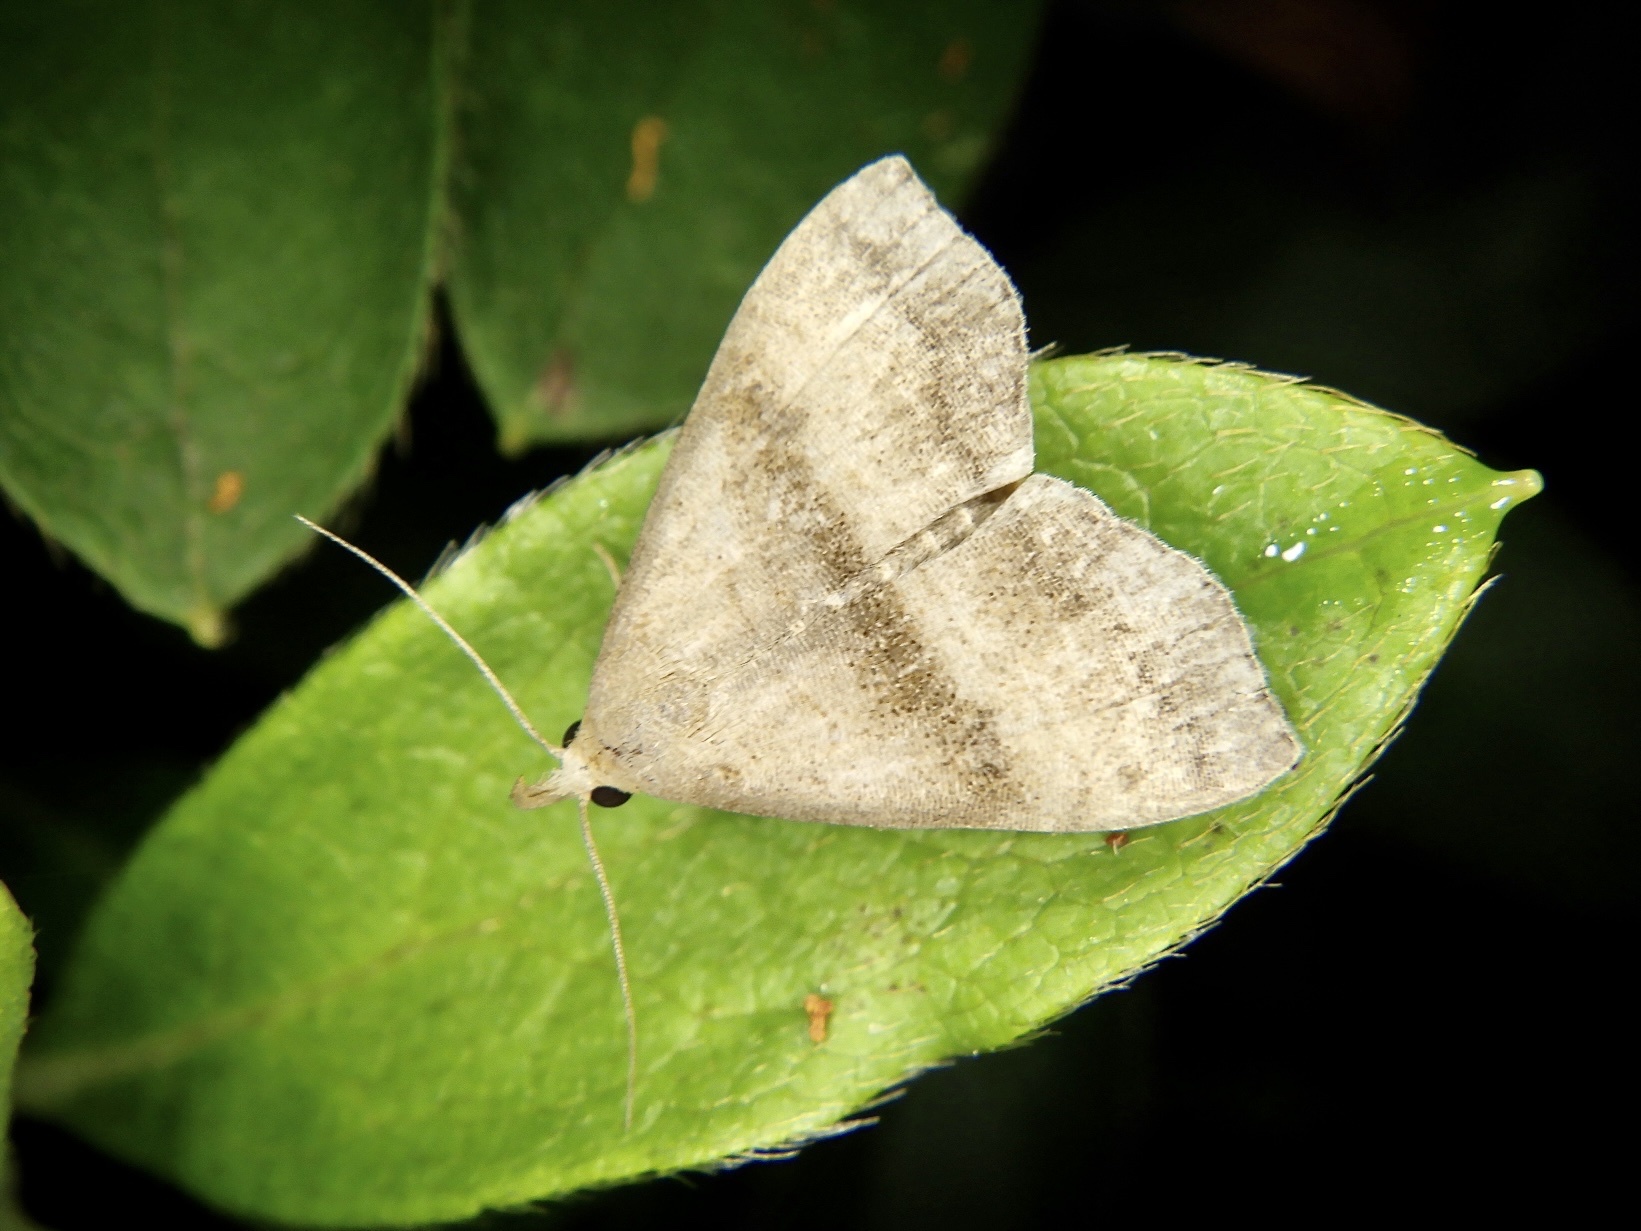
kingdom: Animalia
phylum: Arthropoda
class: Insecta
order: Lepidoptera
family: Erebidae
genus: Herminia
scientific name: Herminia innocens
